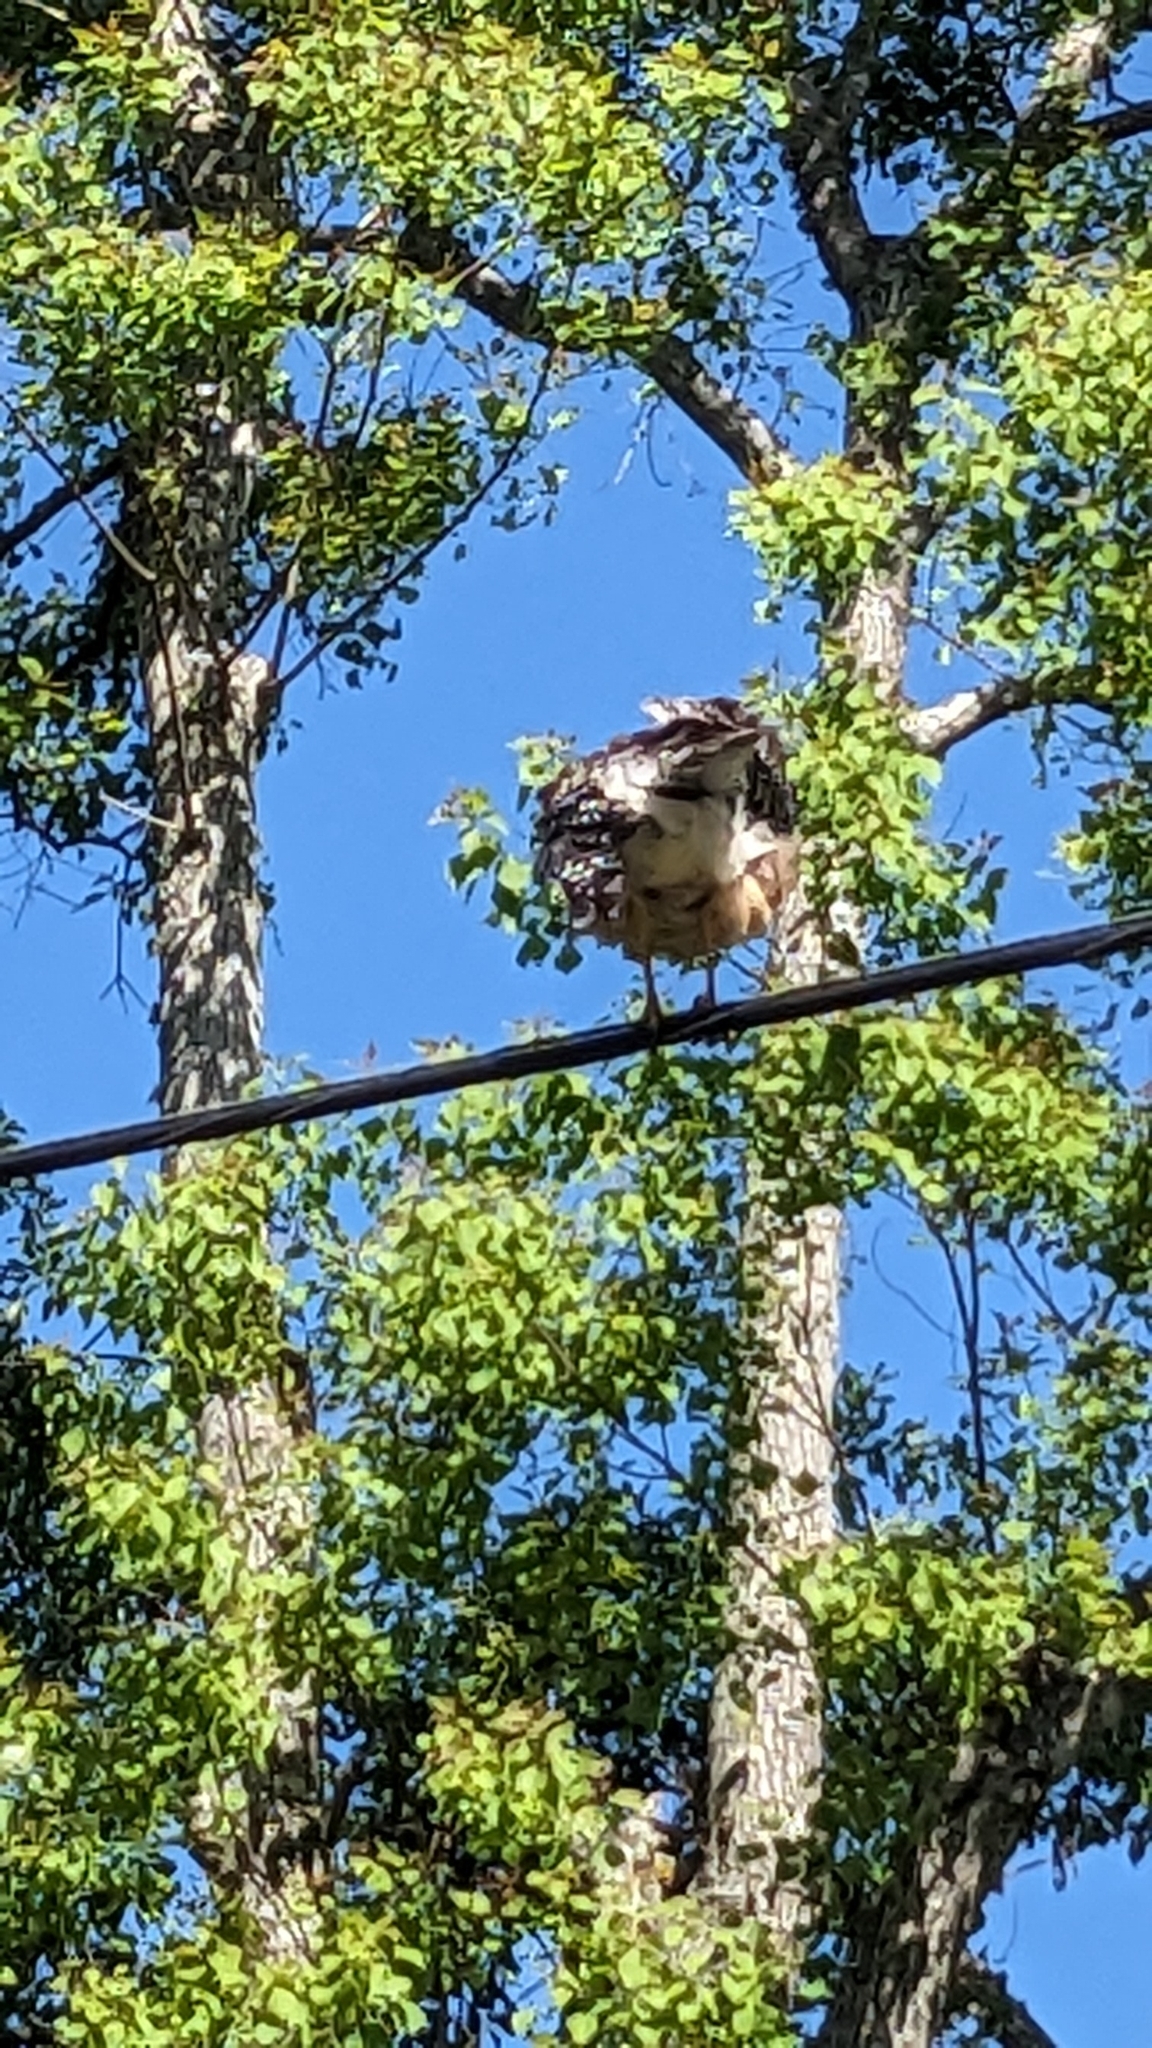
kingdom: Animalia
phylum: Chordata
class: Aves
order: Accipitriformes
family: Accipitridae
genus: Buteo
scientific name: Buteo lineatus
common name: Red-shouldered hawk
